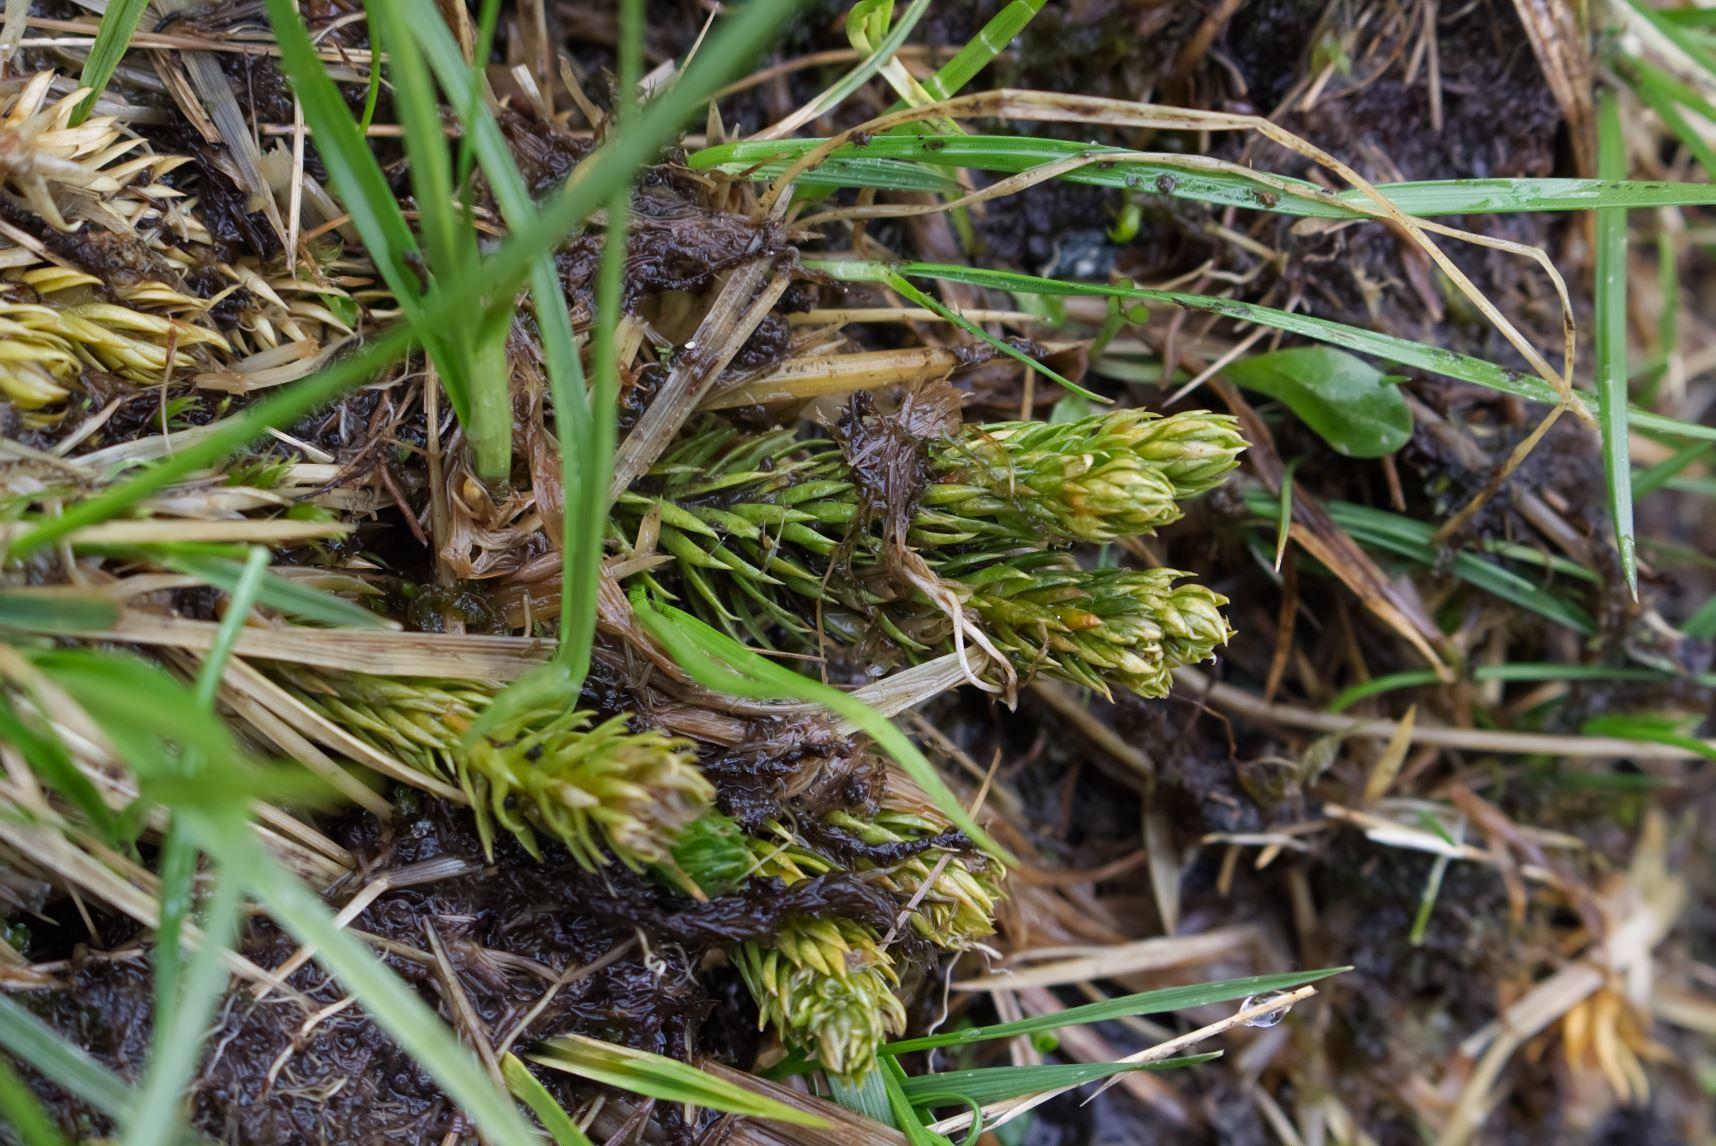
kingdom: Plantae
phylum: Tracheophyta
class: Lycopodiopsida
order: Lycopodiales
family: Lycopodiaceae
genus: Huperzia
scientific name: Huperzia selago
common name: Northern firmoss
